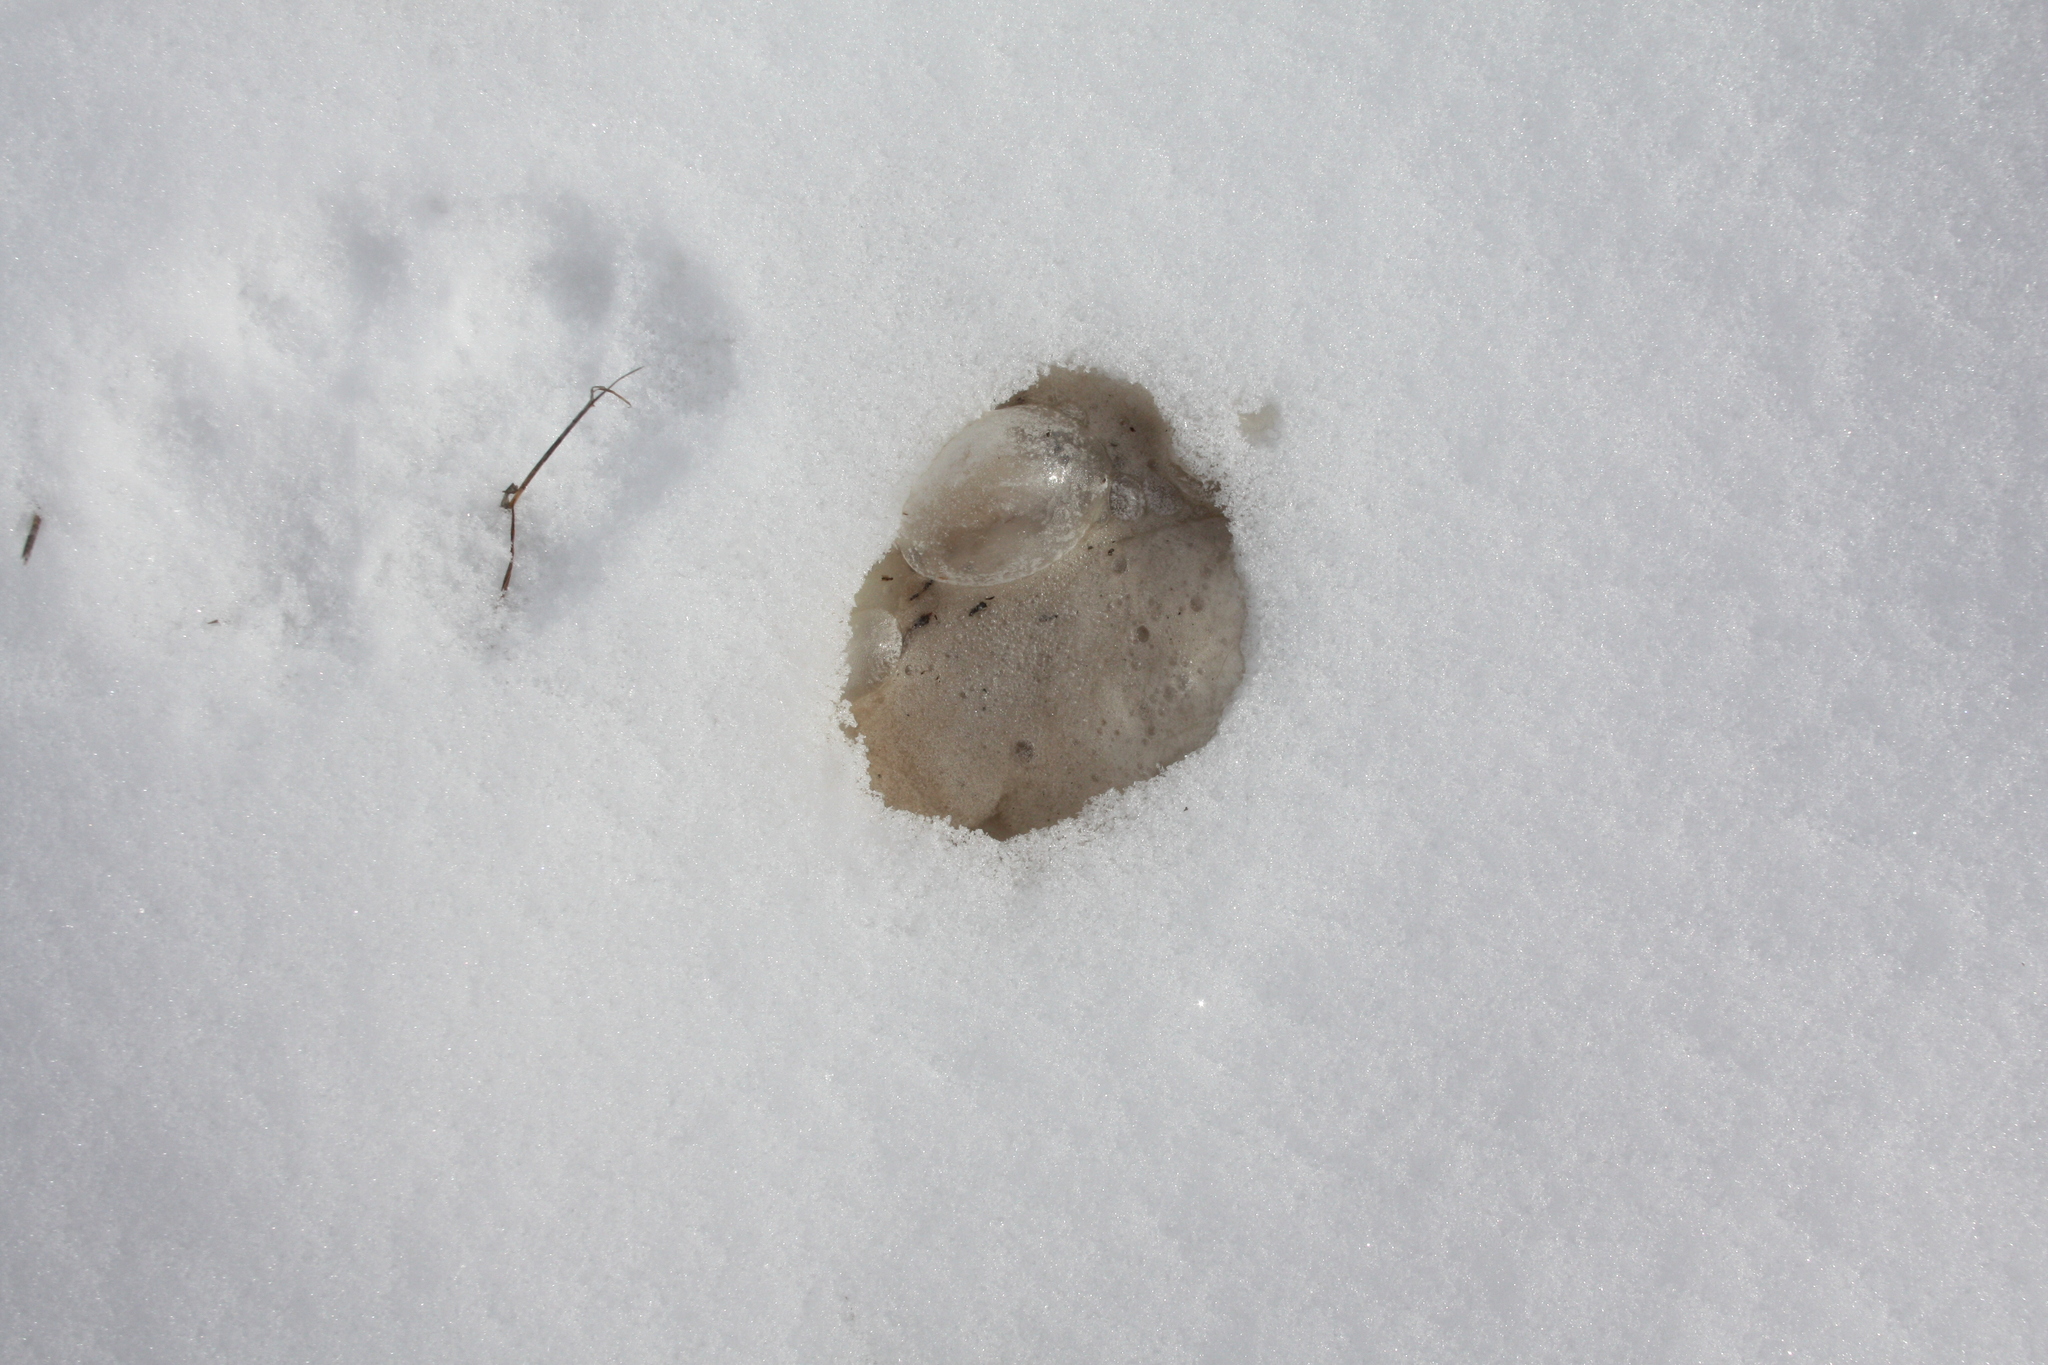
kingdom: Animalia
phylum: Chordata
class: Mammalia
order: Carnivora
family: Canidae
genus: Canis
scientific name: Canis latrans
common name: Coyote
